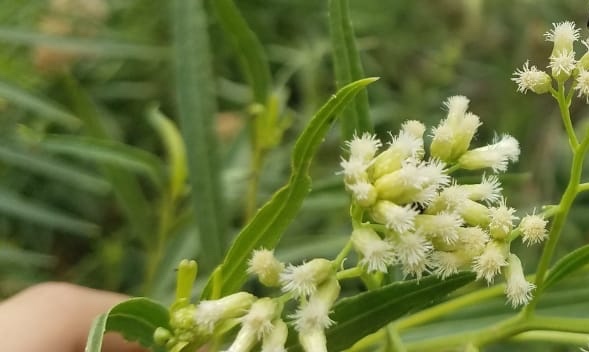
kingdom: Plantae
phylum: Tracheophyta
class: Magnoliopsida
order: Asterales
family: Asteraceae
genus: Baccharis
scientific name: Baccharis salicifolia
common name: Sticky baccharis
